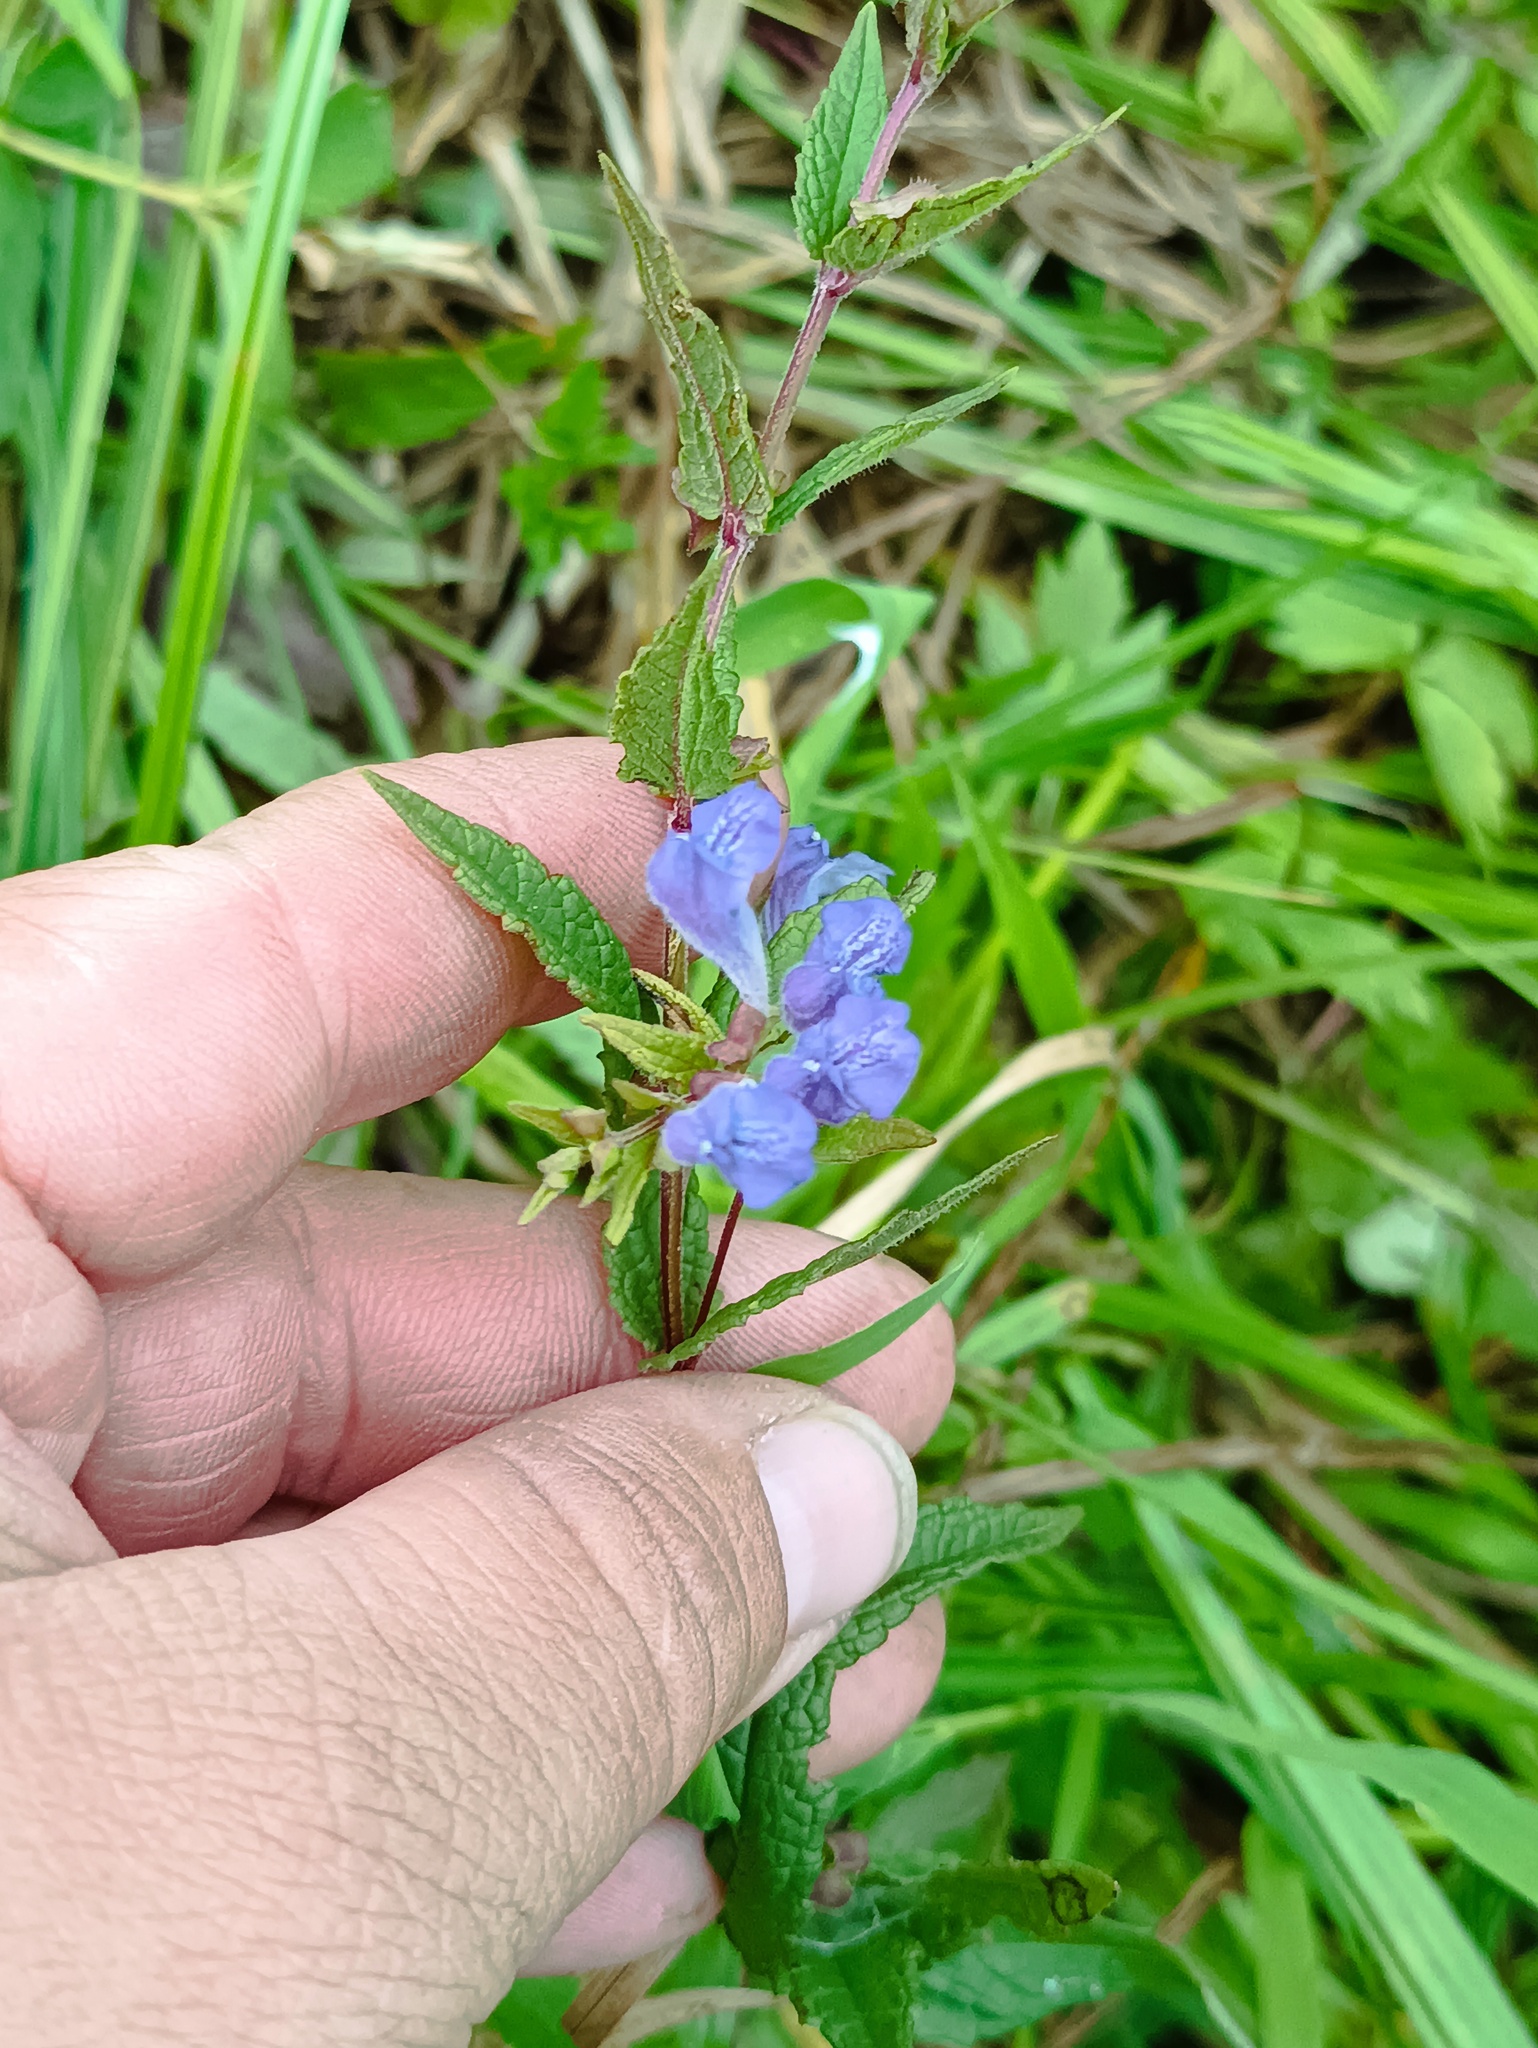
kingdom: Plantae
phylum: Tracheophyta
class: Magnoliopsida
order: Lamiales
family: Lamiaceae
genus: Scutellaria
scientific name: Scutellaria galericulata
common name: Skullcap
